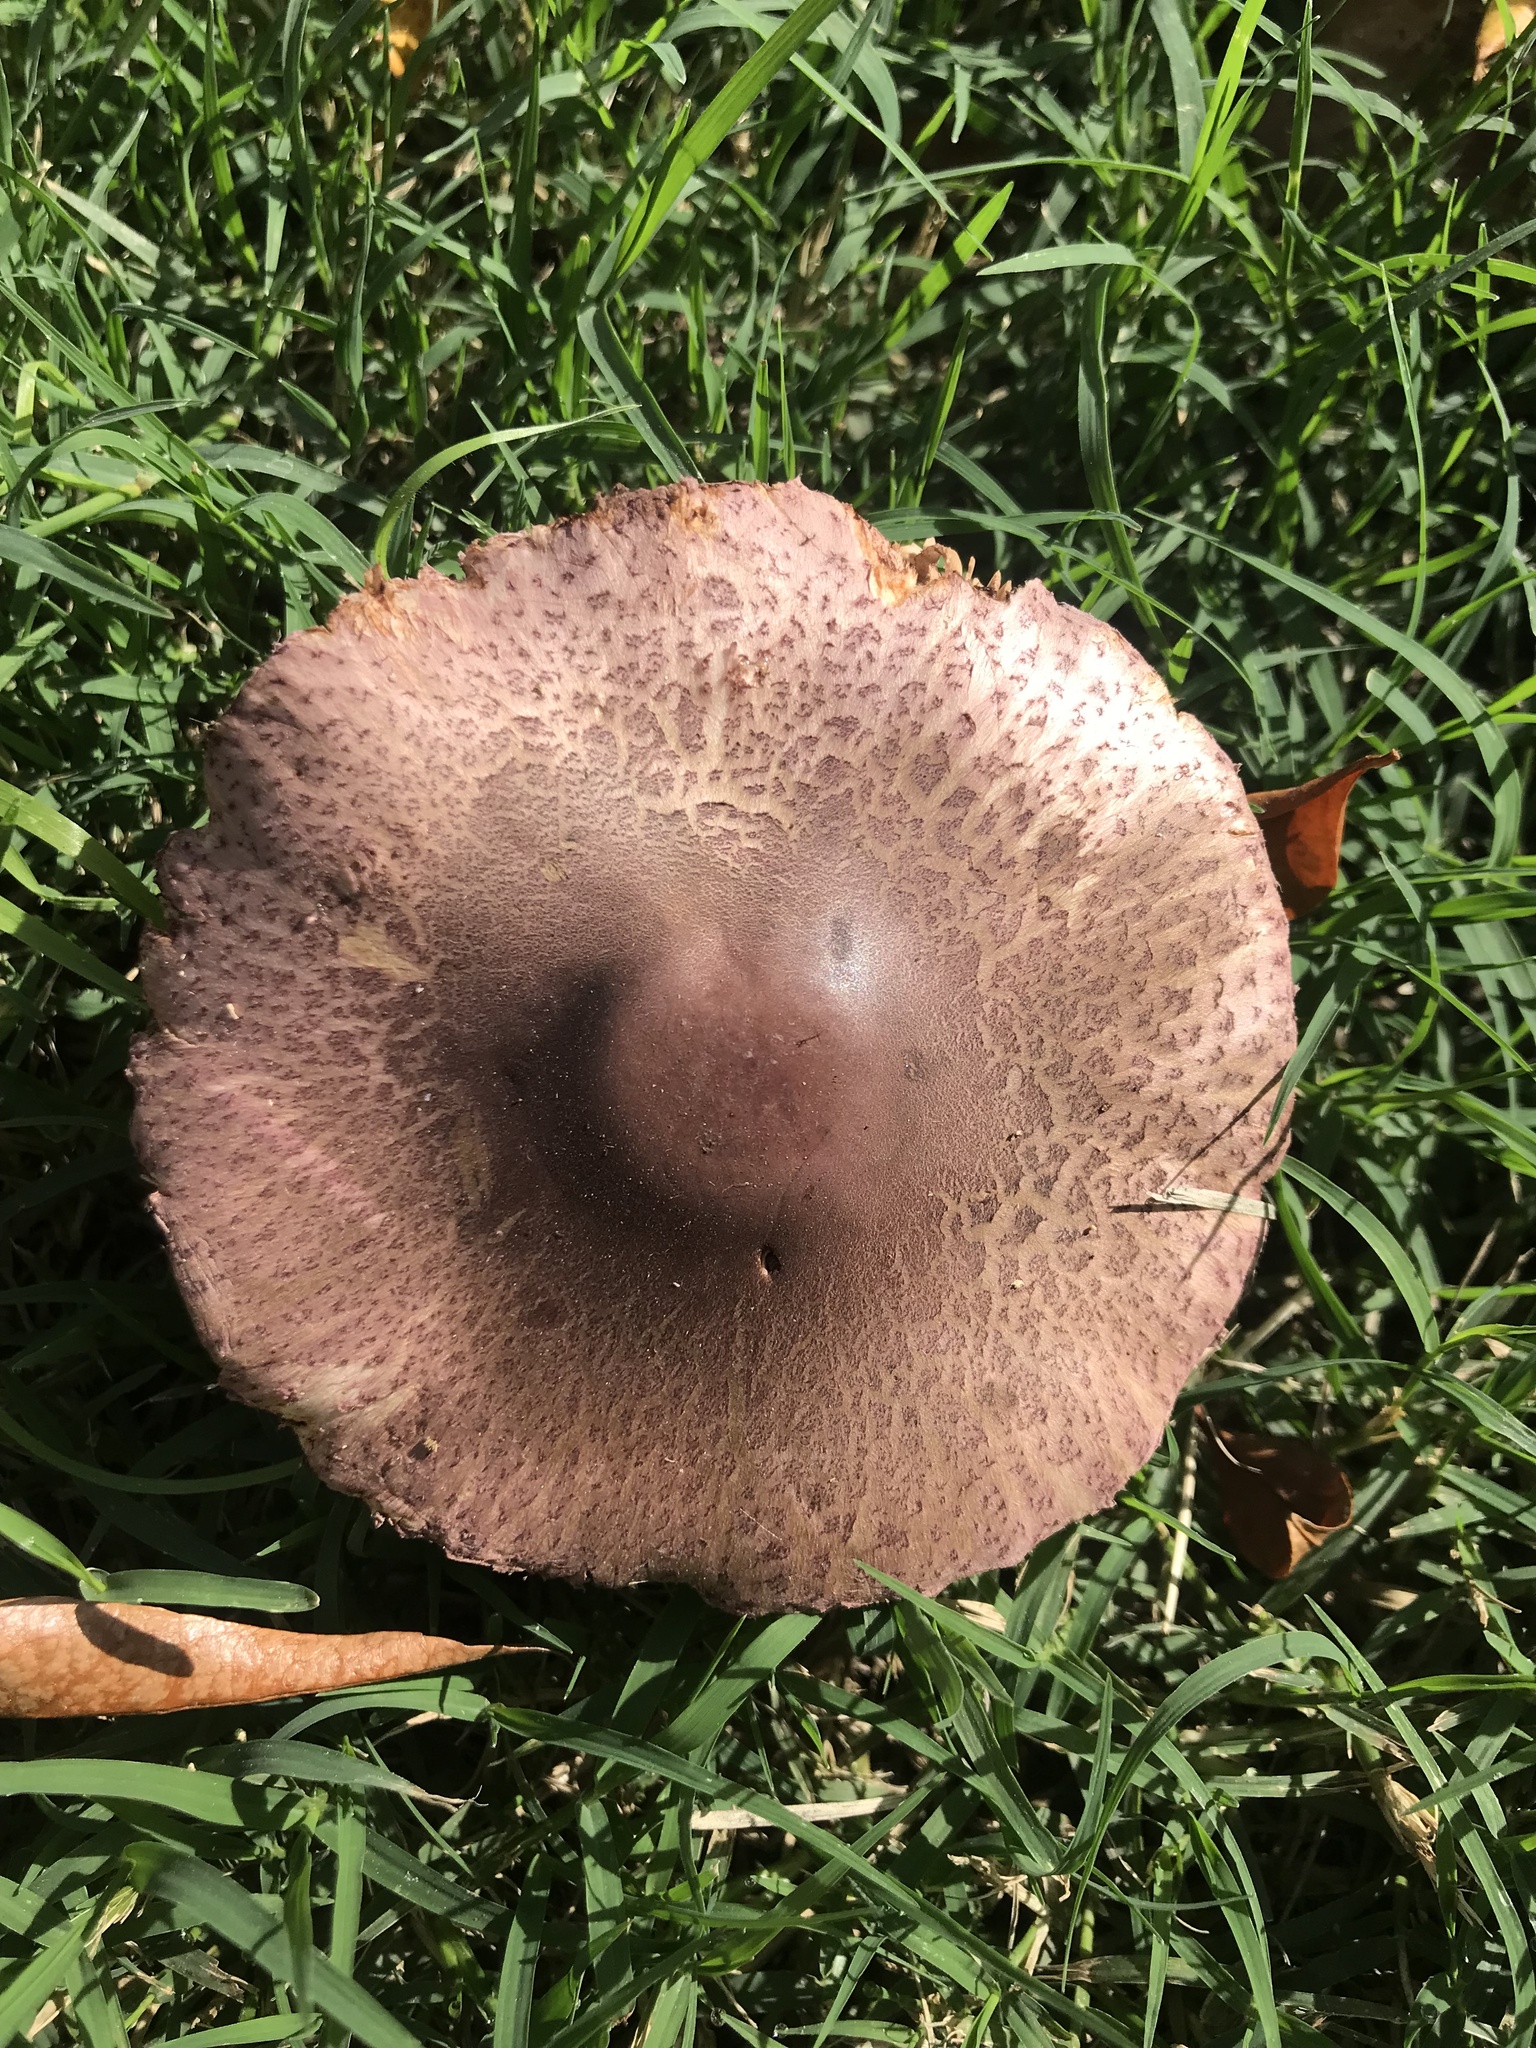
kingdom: Fungi
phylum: Basidiomycota
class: Agaricomycetes
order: Agaricales
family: Agaricaceae
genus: Leucoagaricus
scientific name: Leucoagaricus lilaceus
